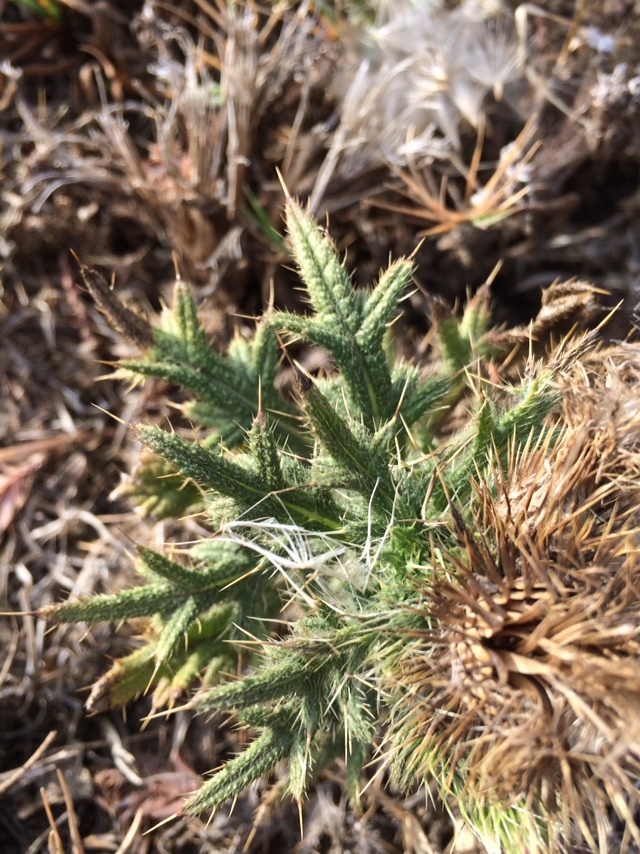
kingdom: Plantae
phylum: Tracheophyta
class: Magnoliopsida
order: Asterales
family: Asteraceae
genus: Cirsium
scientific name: Cirsium vulgare
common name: Bull thistle
